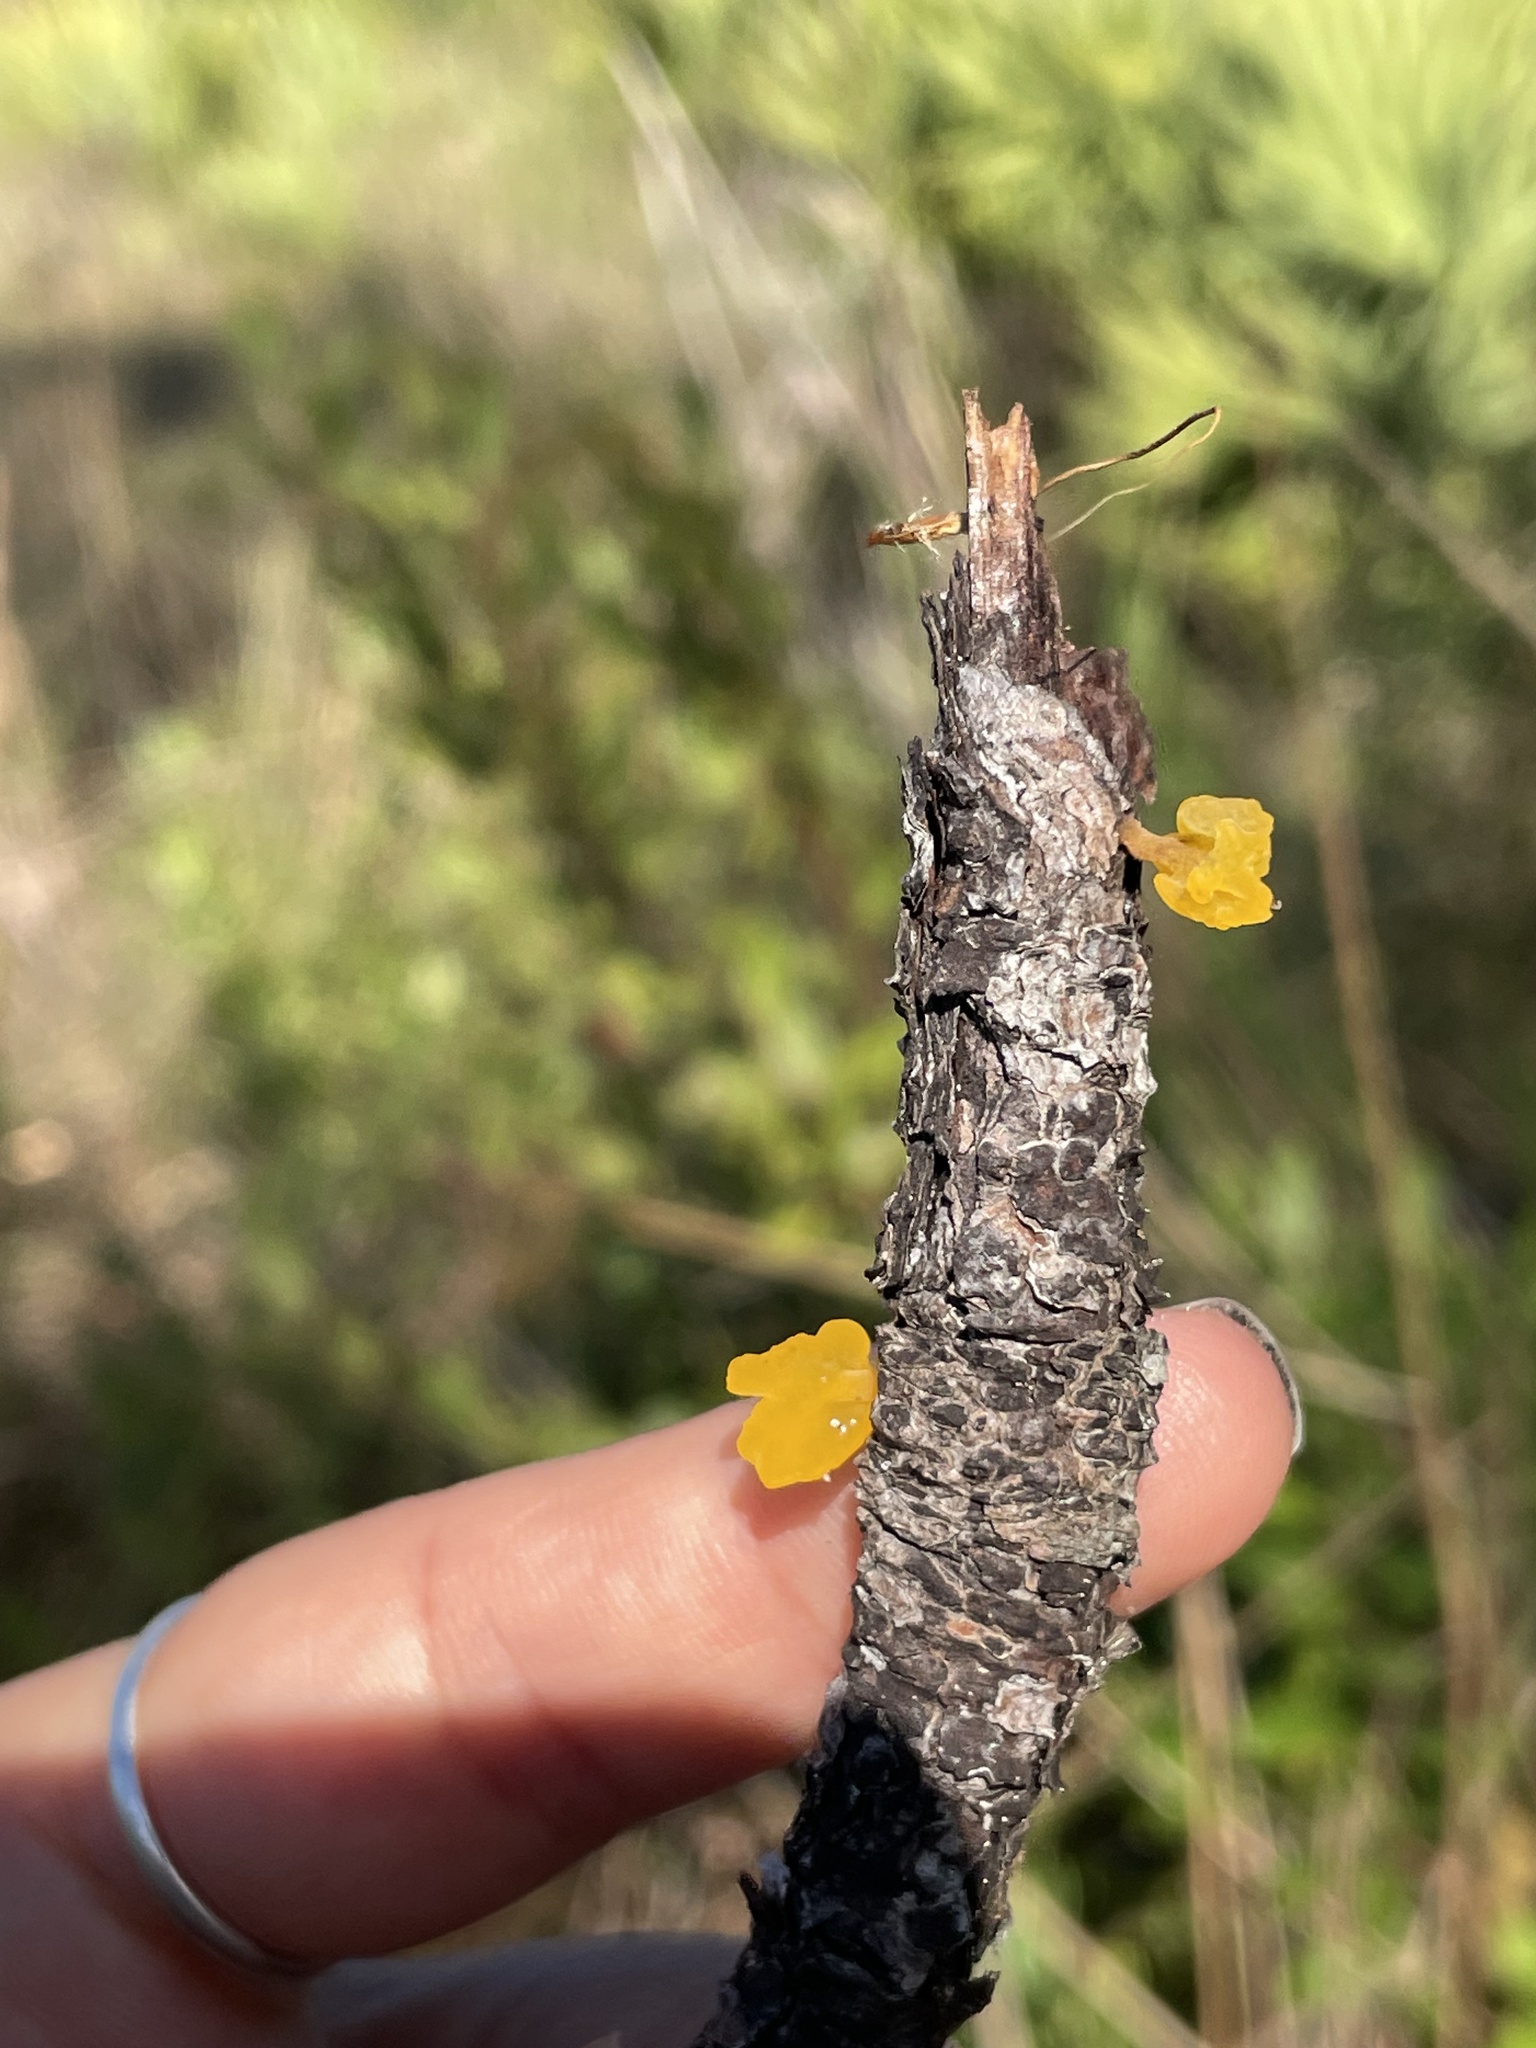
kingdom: Fungi
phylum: Basidiomycota
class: Dacrymycetes
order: Dacrymycetales
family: Dacrymycetaceae
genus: Dacrymyces
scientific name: Dacrymyces spathularius
